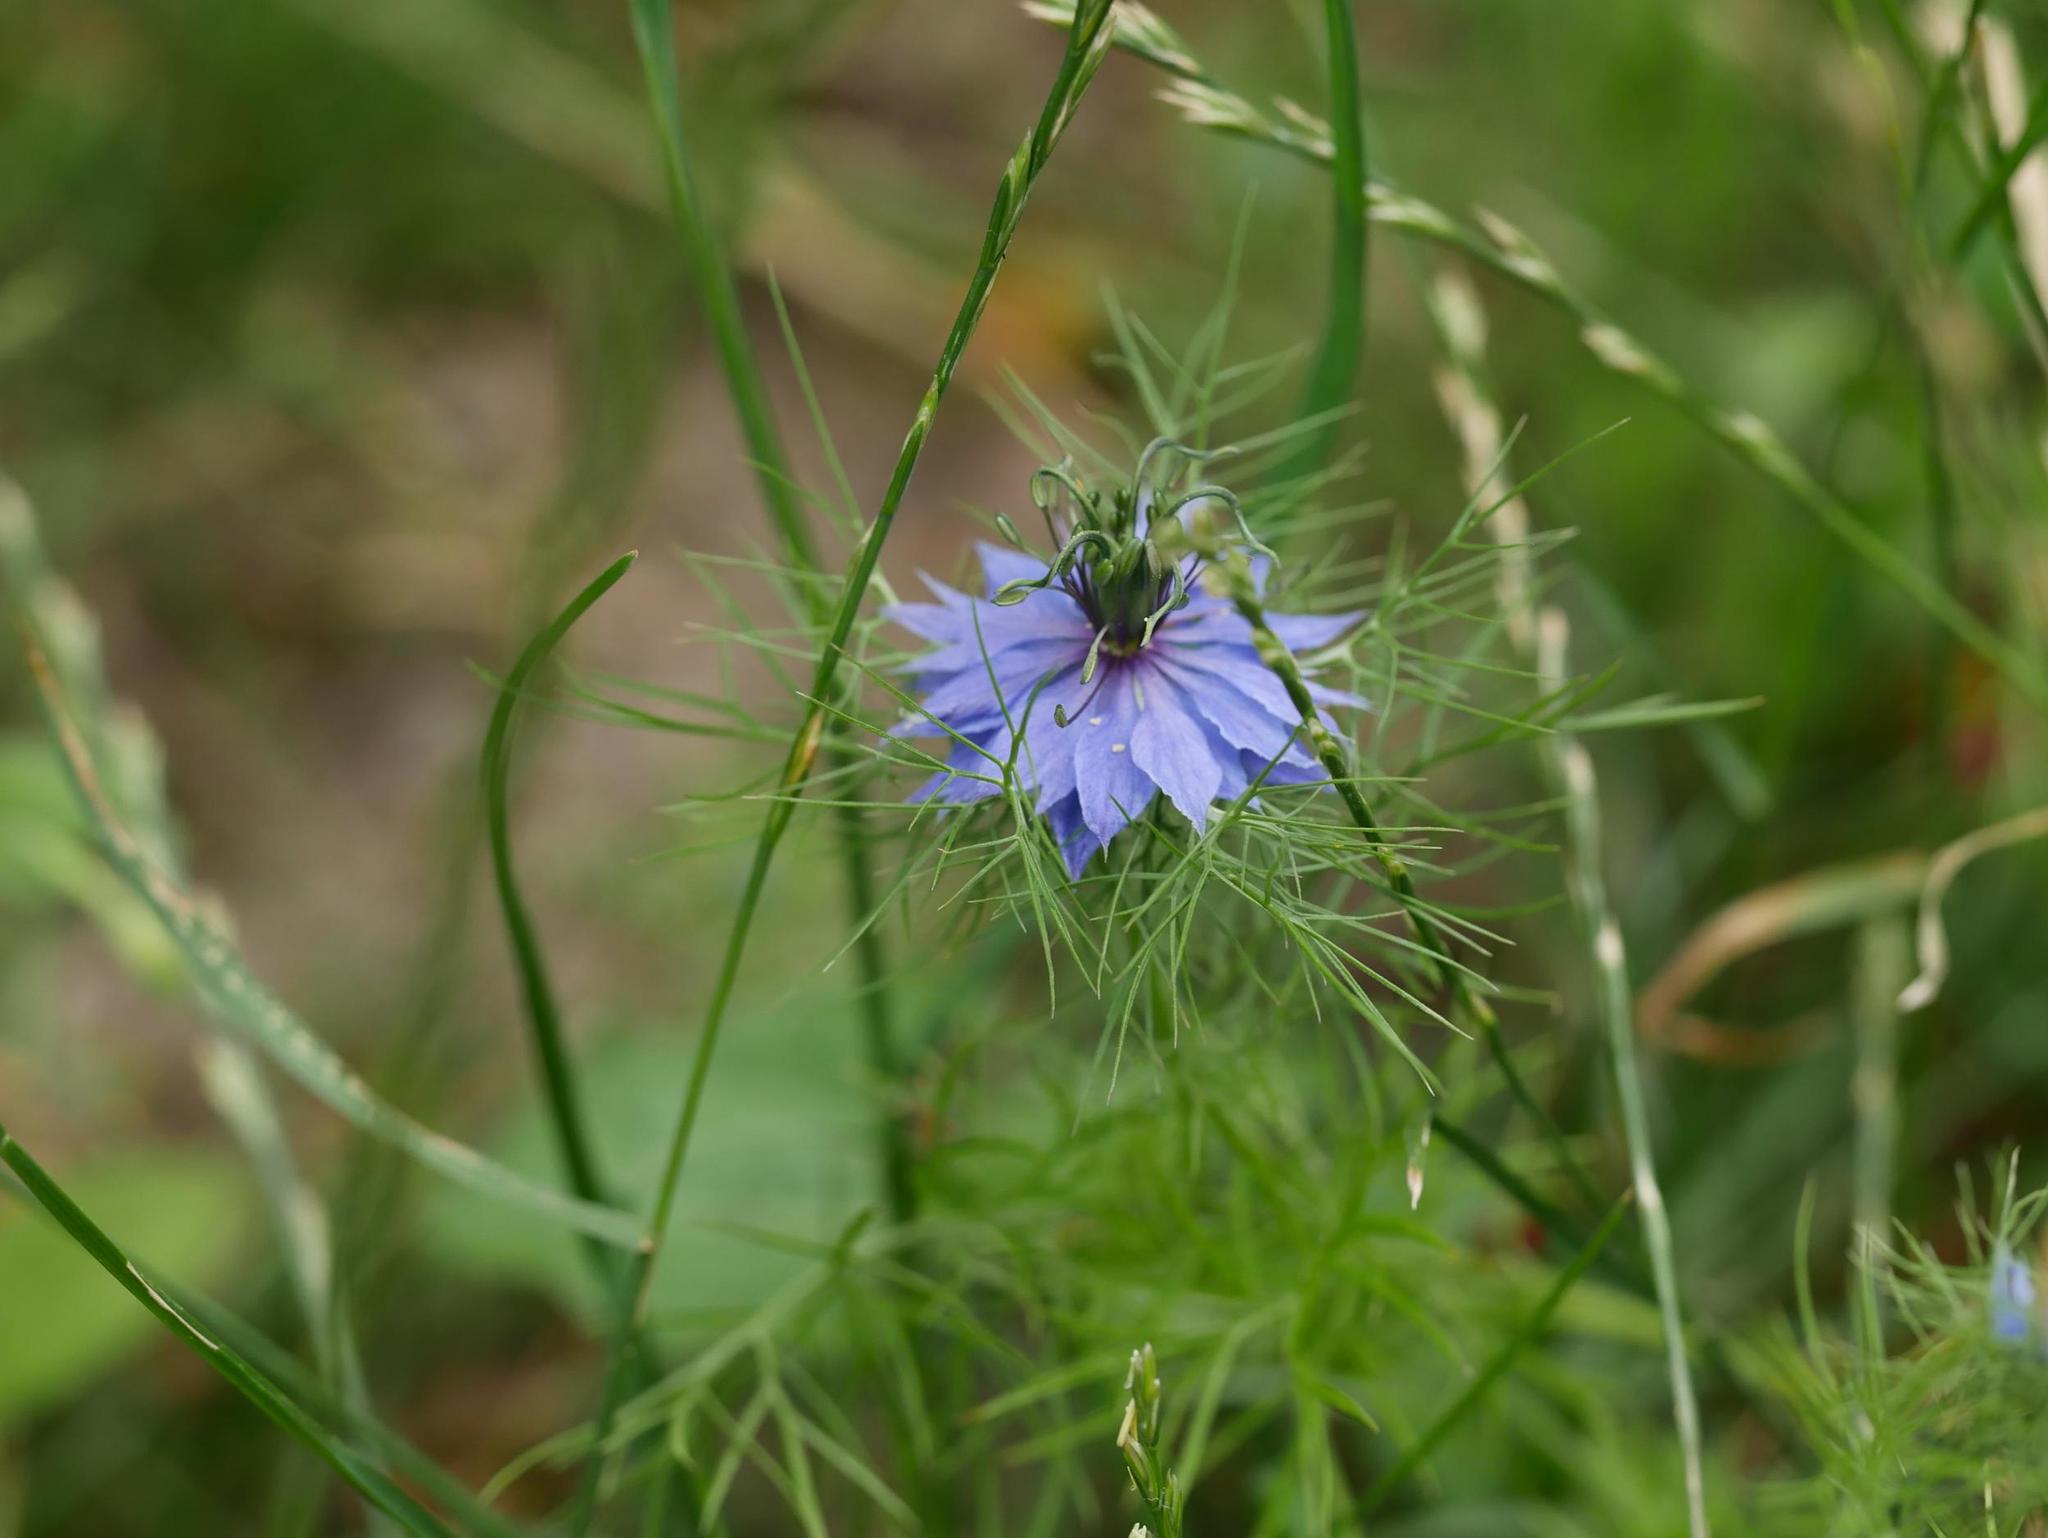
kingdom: Plantae
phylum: Tracheophyta
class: Magnoliopsida
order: Ranunculales
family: Ranunculaceae
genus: Nigella
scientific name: Nigella damascena
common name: Love-in-a-mist
